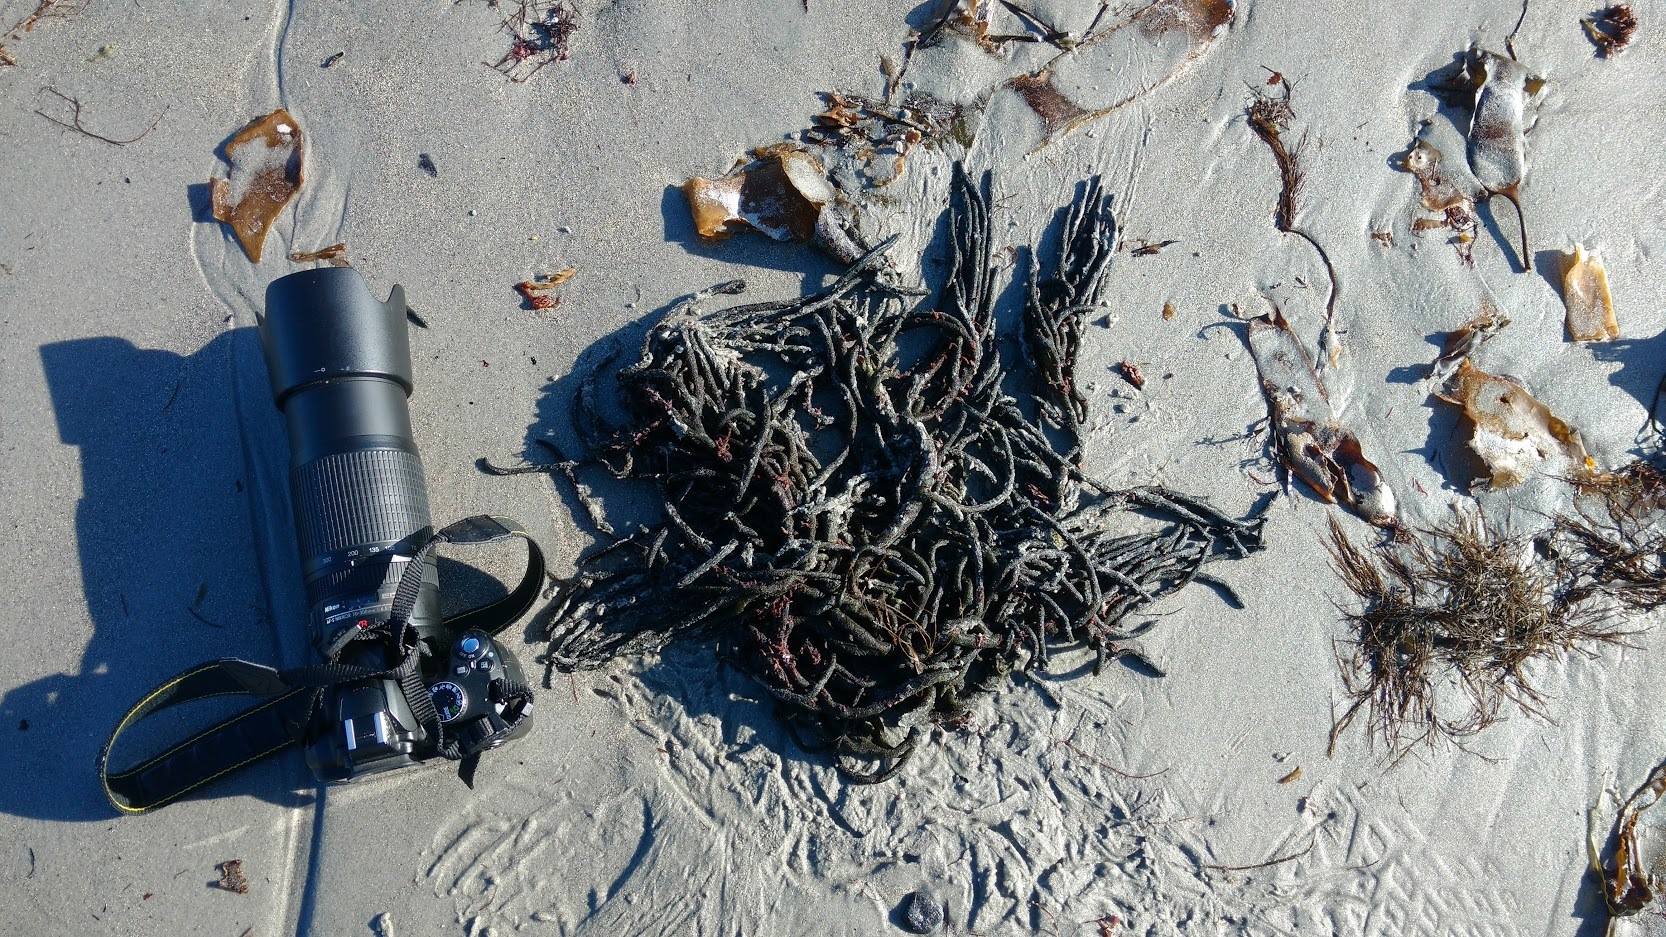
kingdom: Plantae
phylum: Chlorophyta
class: Ulvophyceae
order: Bryopsidales
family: Codiaceae
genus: Codium
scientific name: Codium fragile
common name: Dead man's fingers
